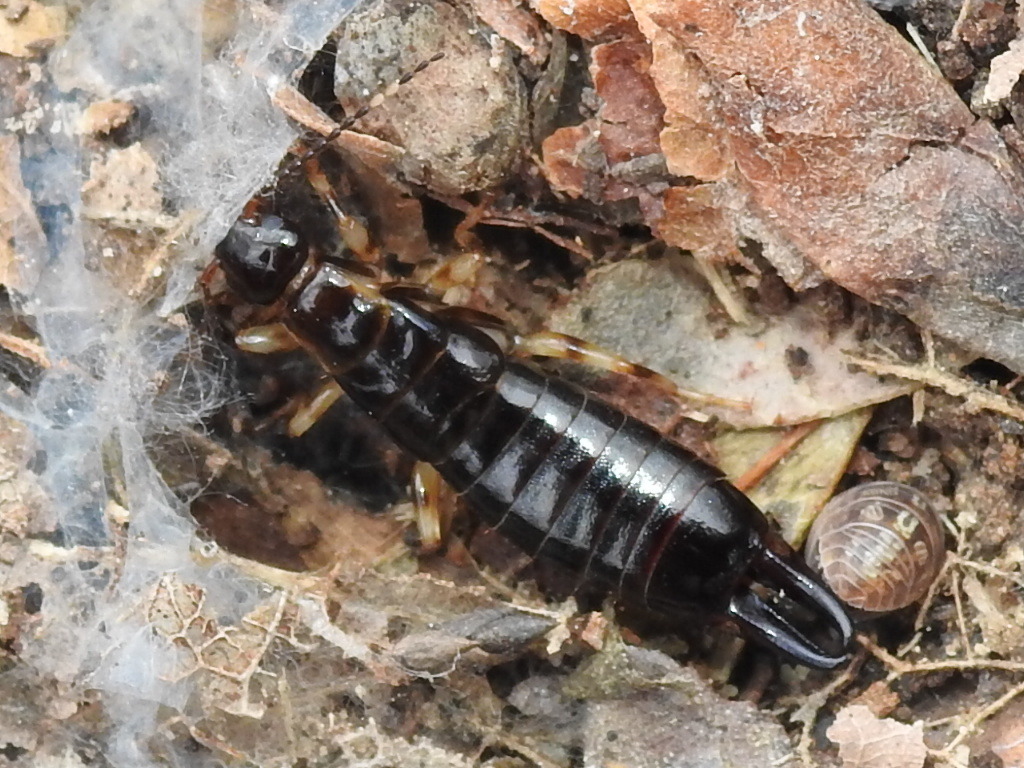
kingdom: Animalia
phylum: Arthropoda
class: Insecta
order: Dermaptera
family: Anisolabididae
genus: Euborellia
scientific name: Euborellia annulipes
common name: Ringlegged earwig
